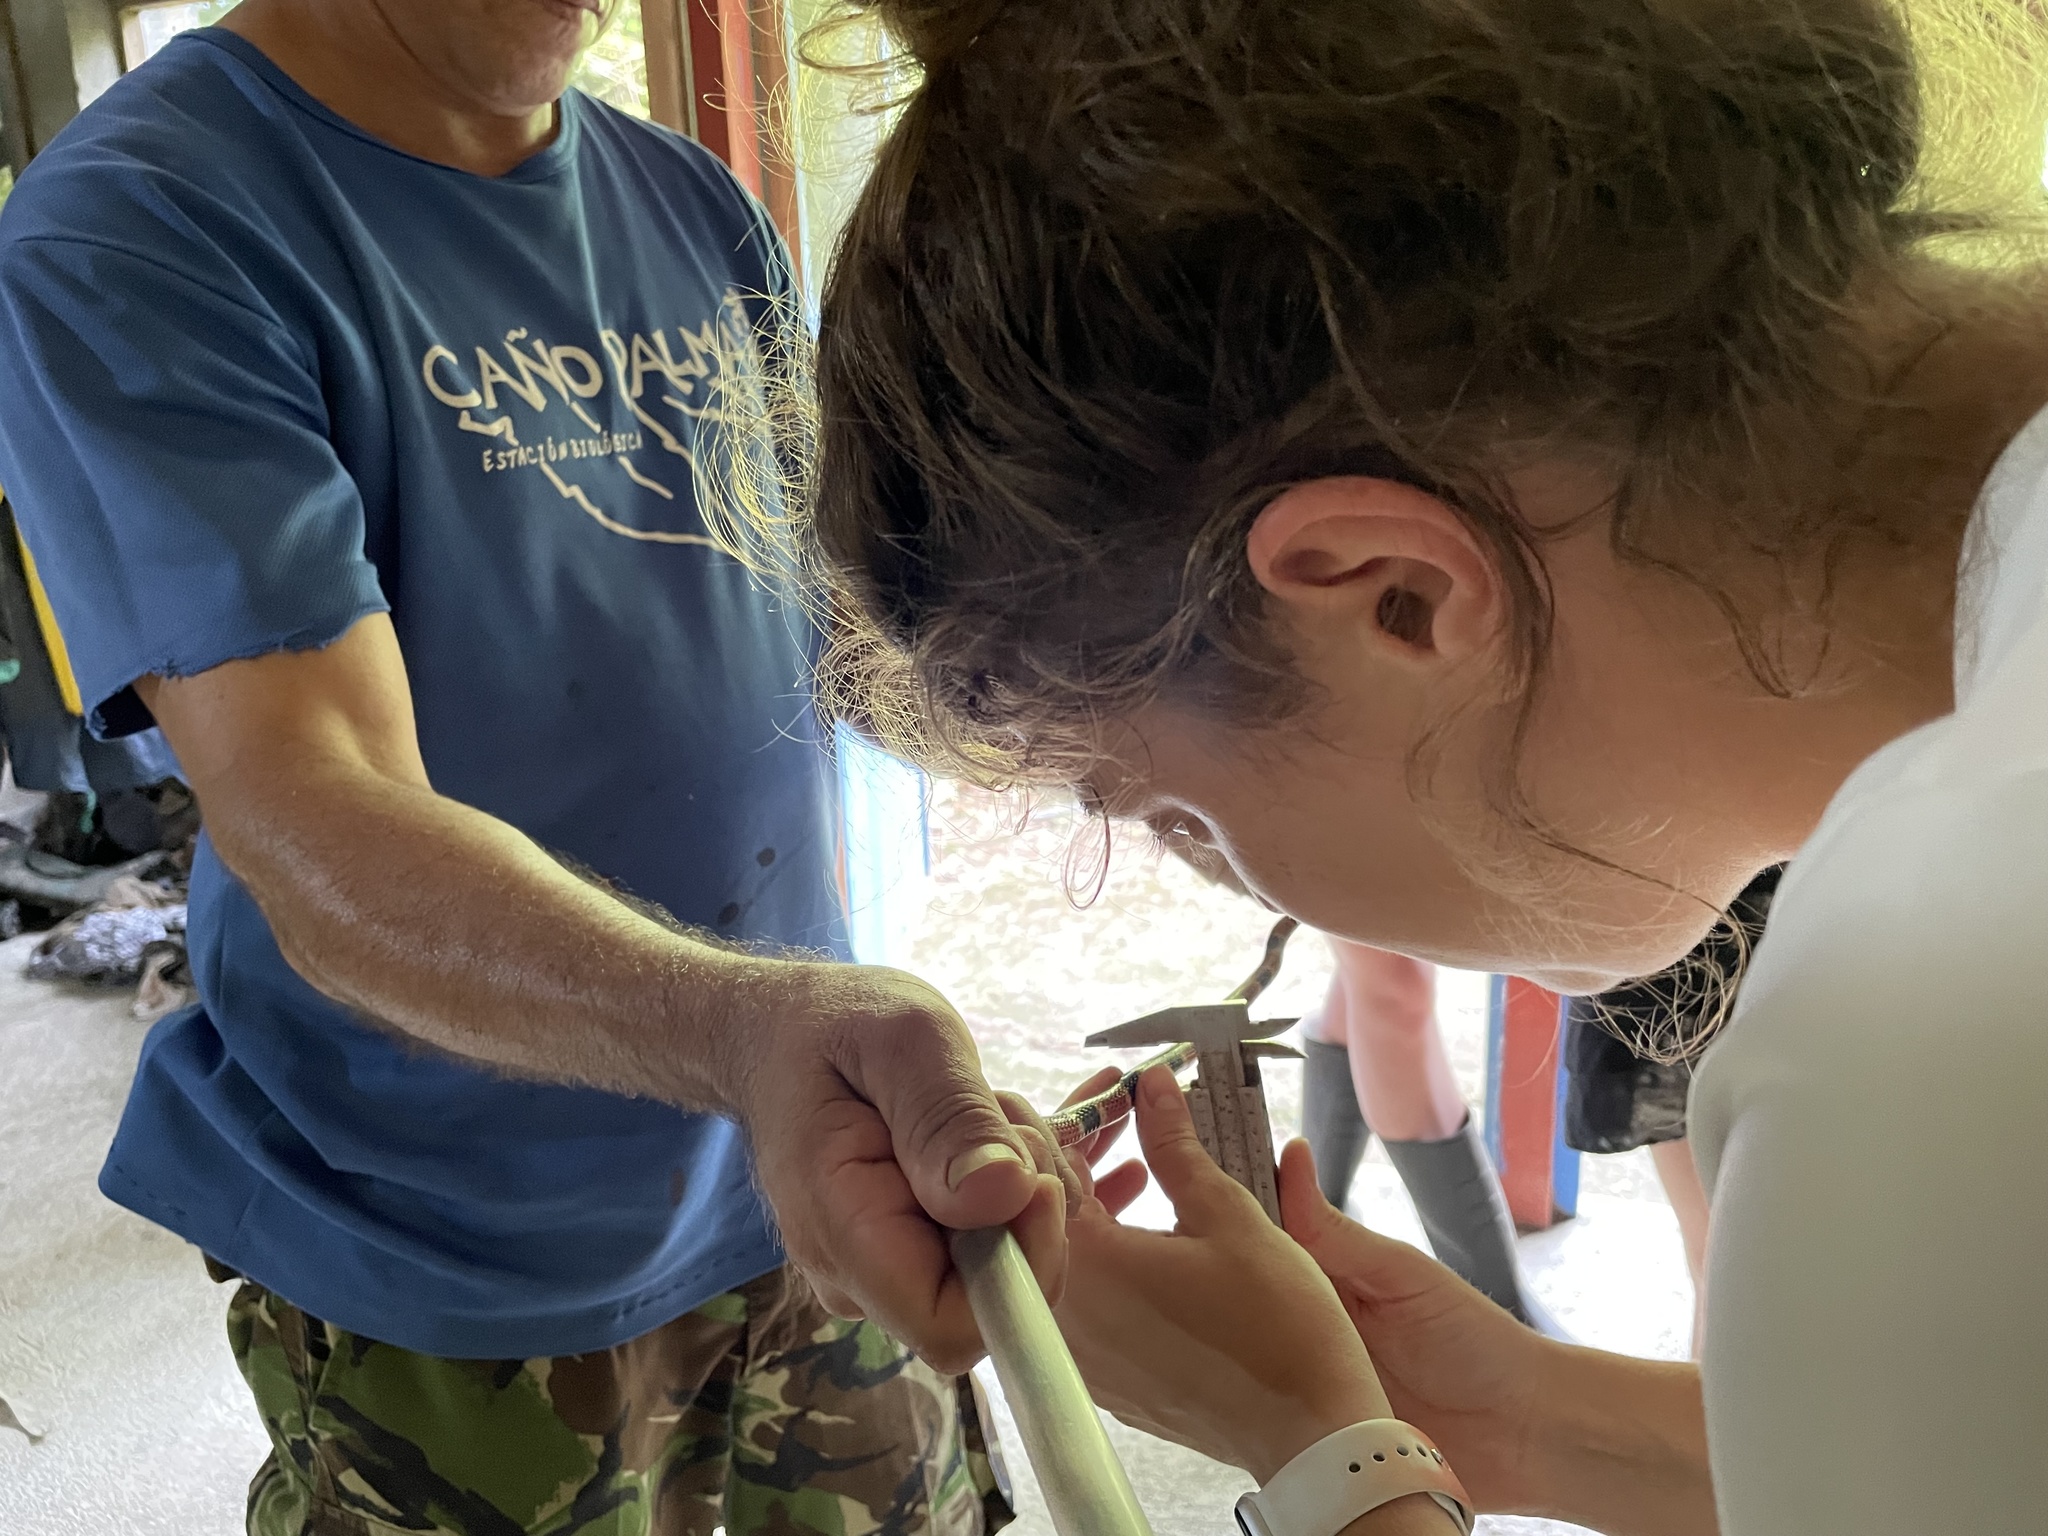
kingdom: Animalia
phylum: Chordata
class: Squamata
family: Elapidae
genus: Micrurus
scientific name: Micrurus alleni
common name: Allen's coral snake
